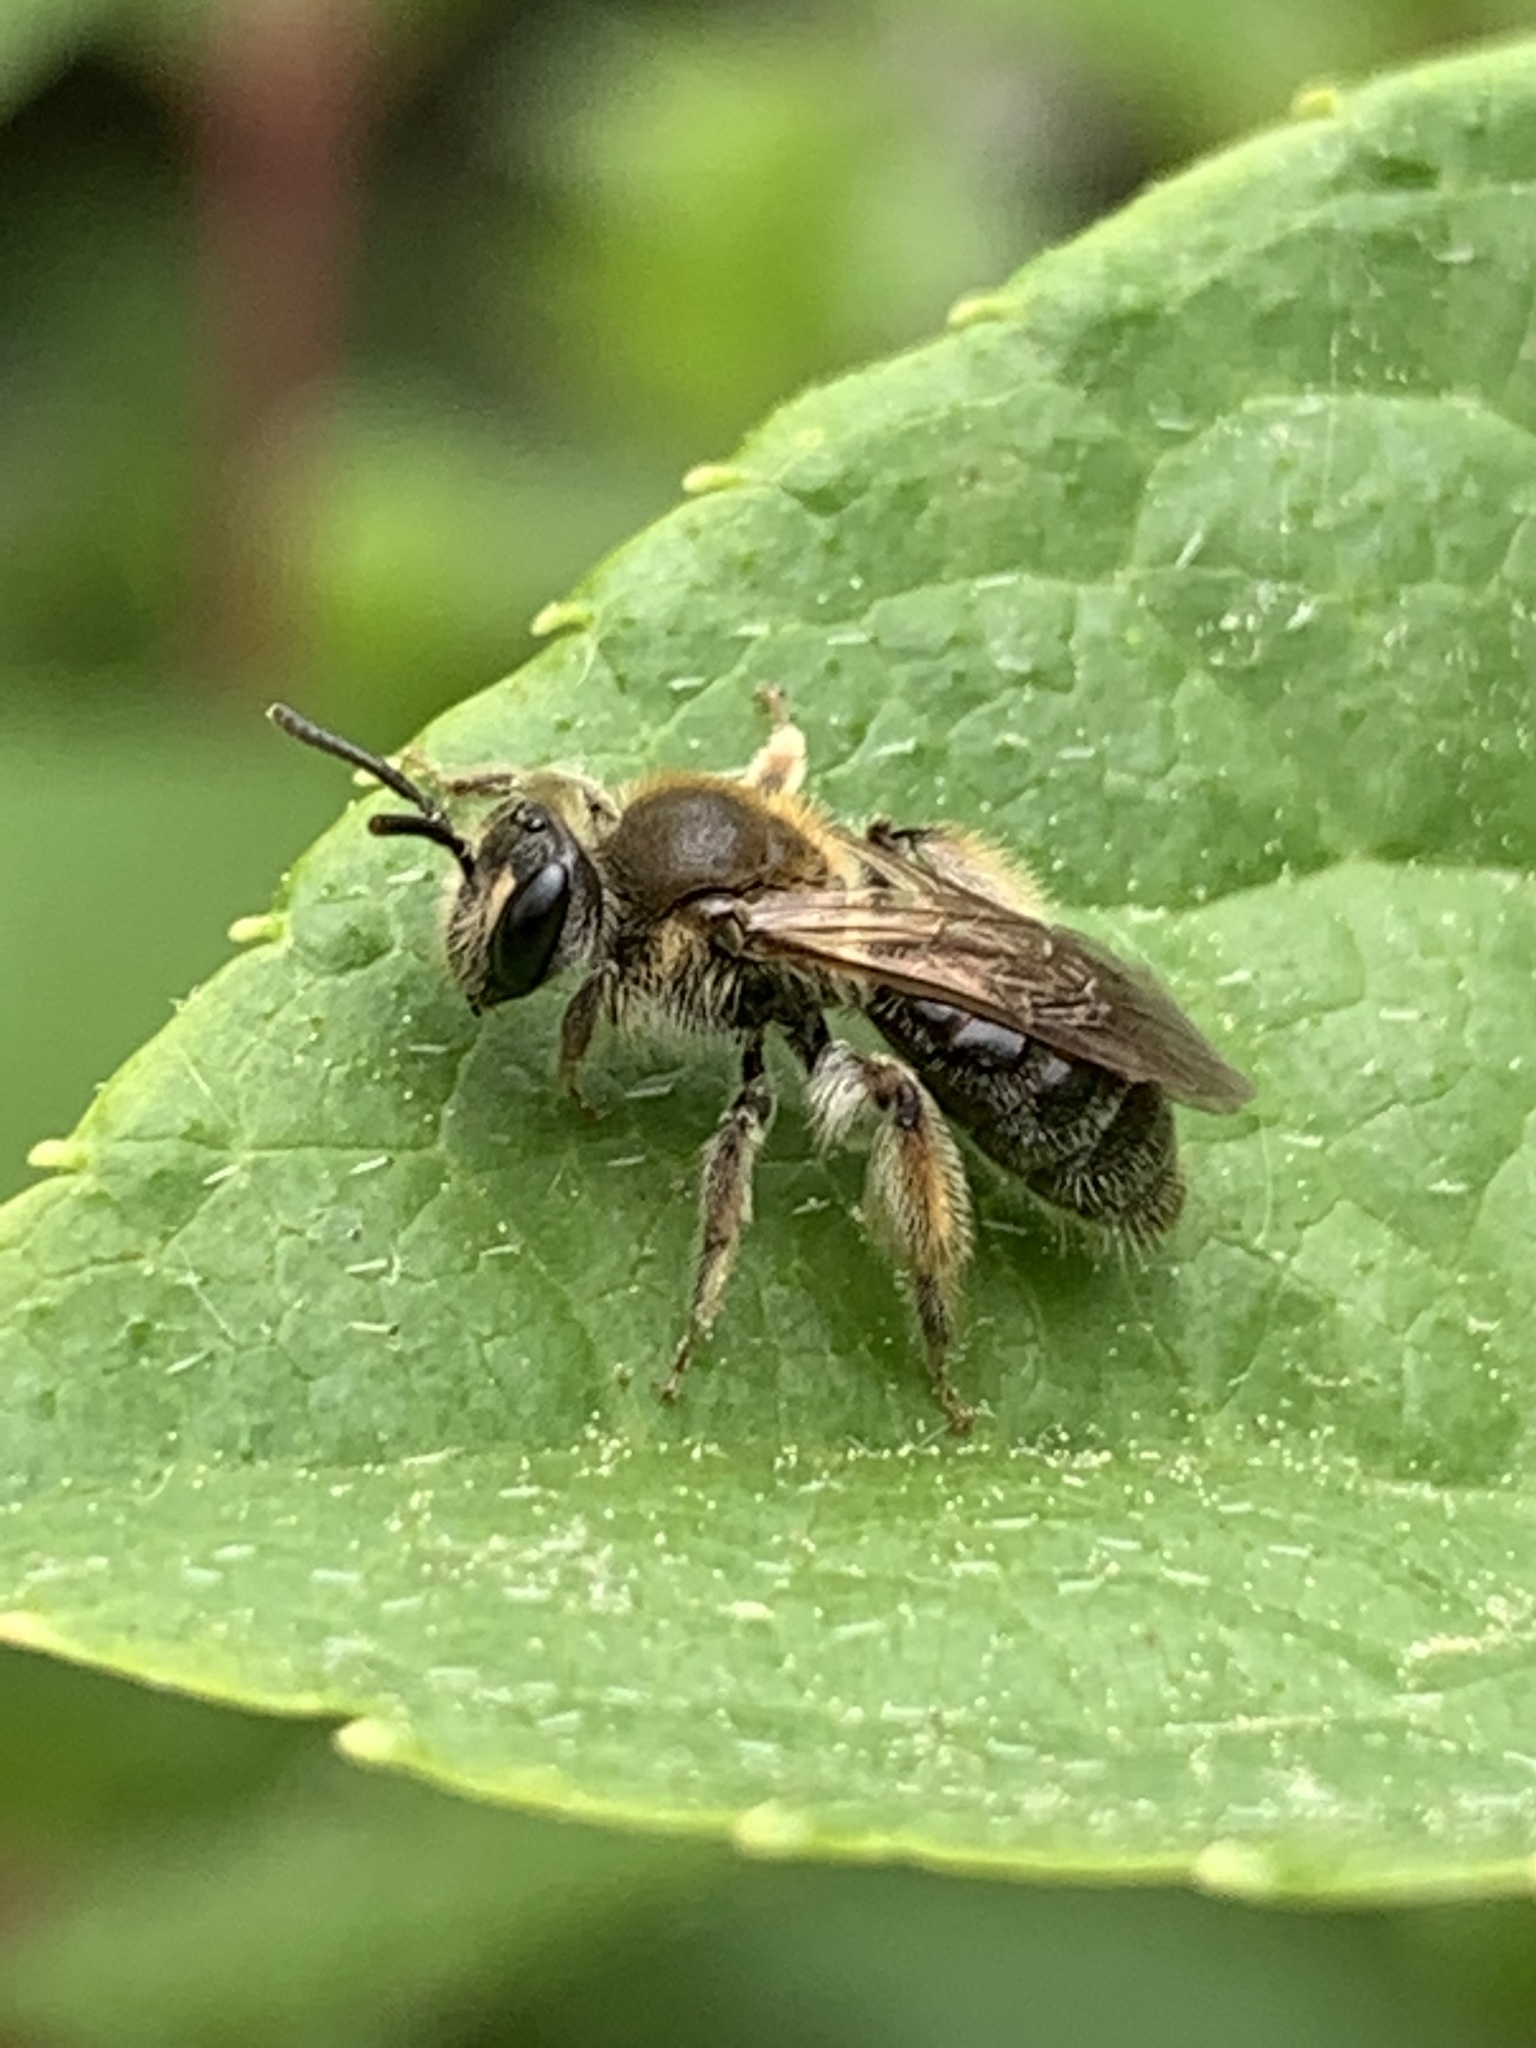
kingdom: Animalia
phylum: Arthropoda
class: Insecta
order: Hymenoptera
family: Andrenidae
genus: Andrena
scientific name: Andrena
